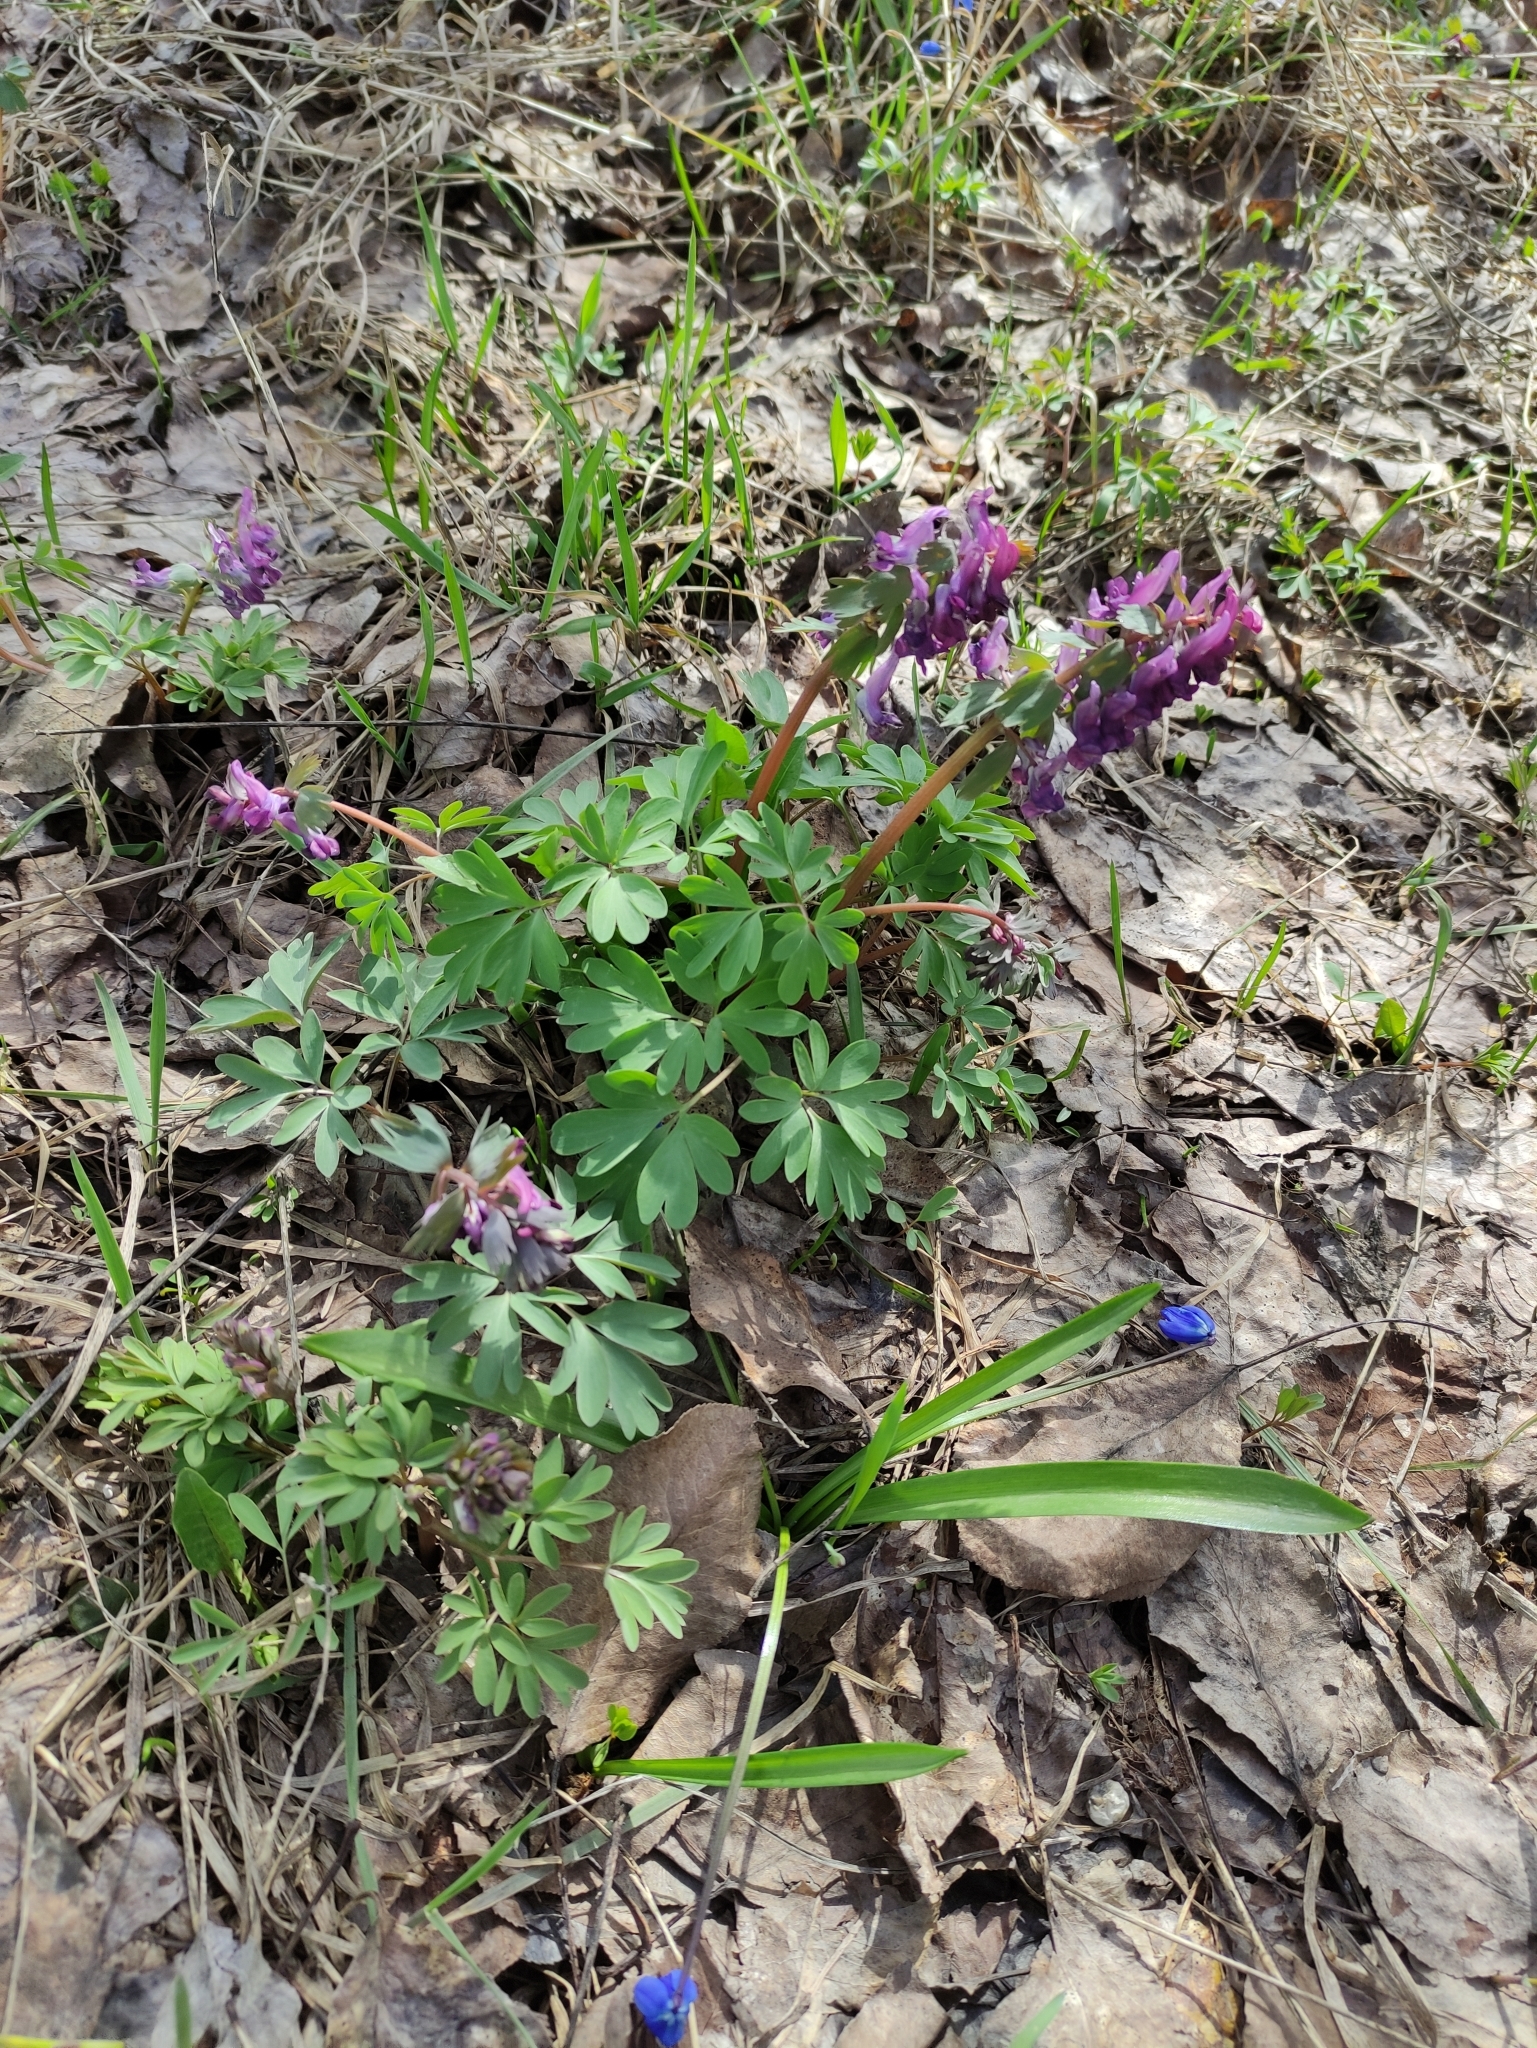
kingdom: Plantae
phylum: Tracheophyta
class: Magnoliopsida
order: Ranunculales
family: Papaveraceae
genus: Corydalis
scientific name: Corydalis solida
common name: Bird-in-a-bush
